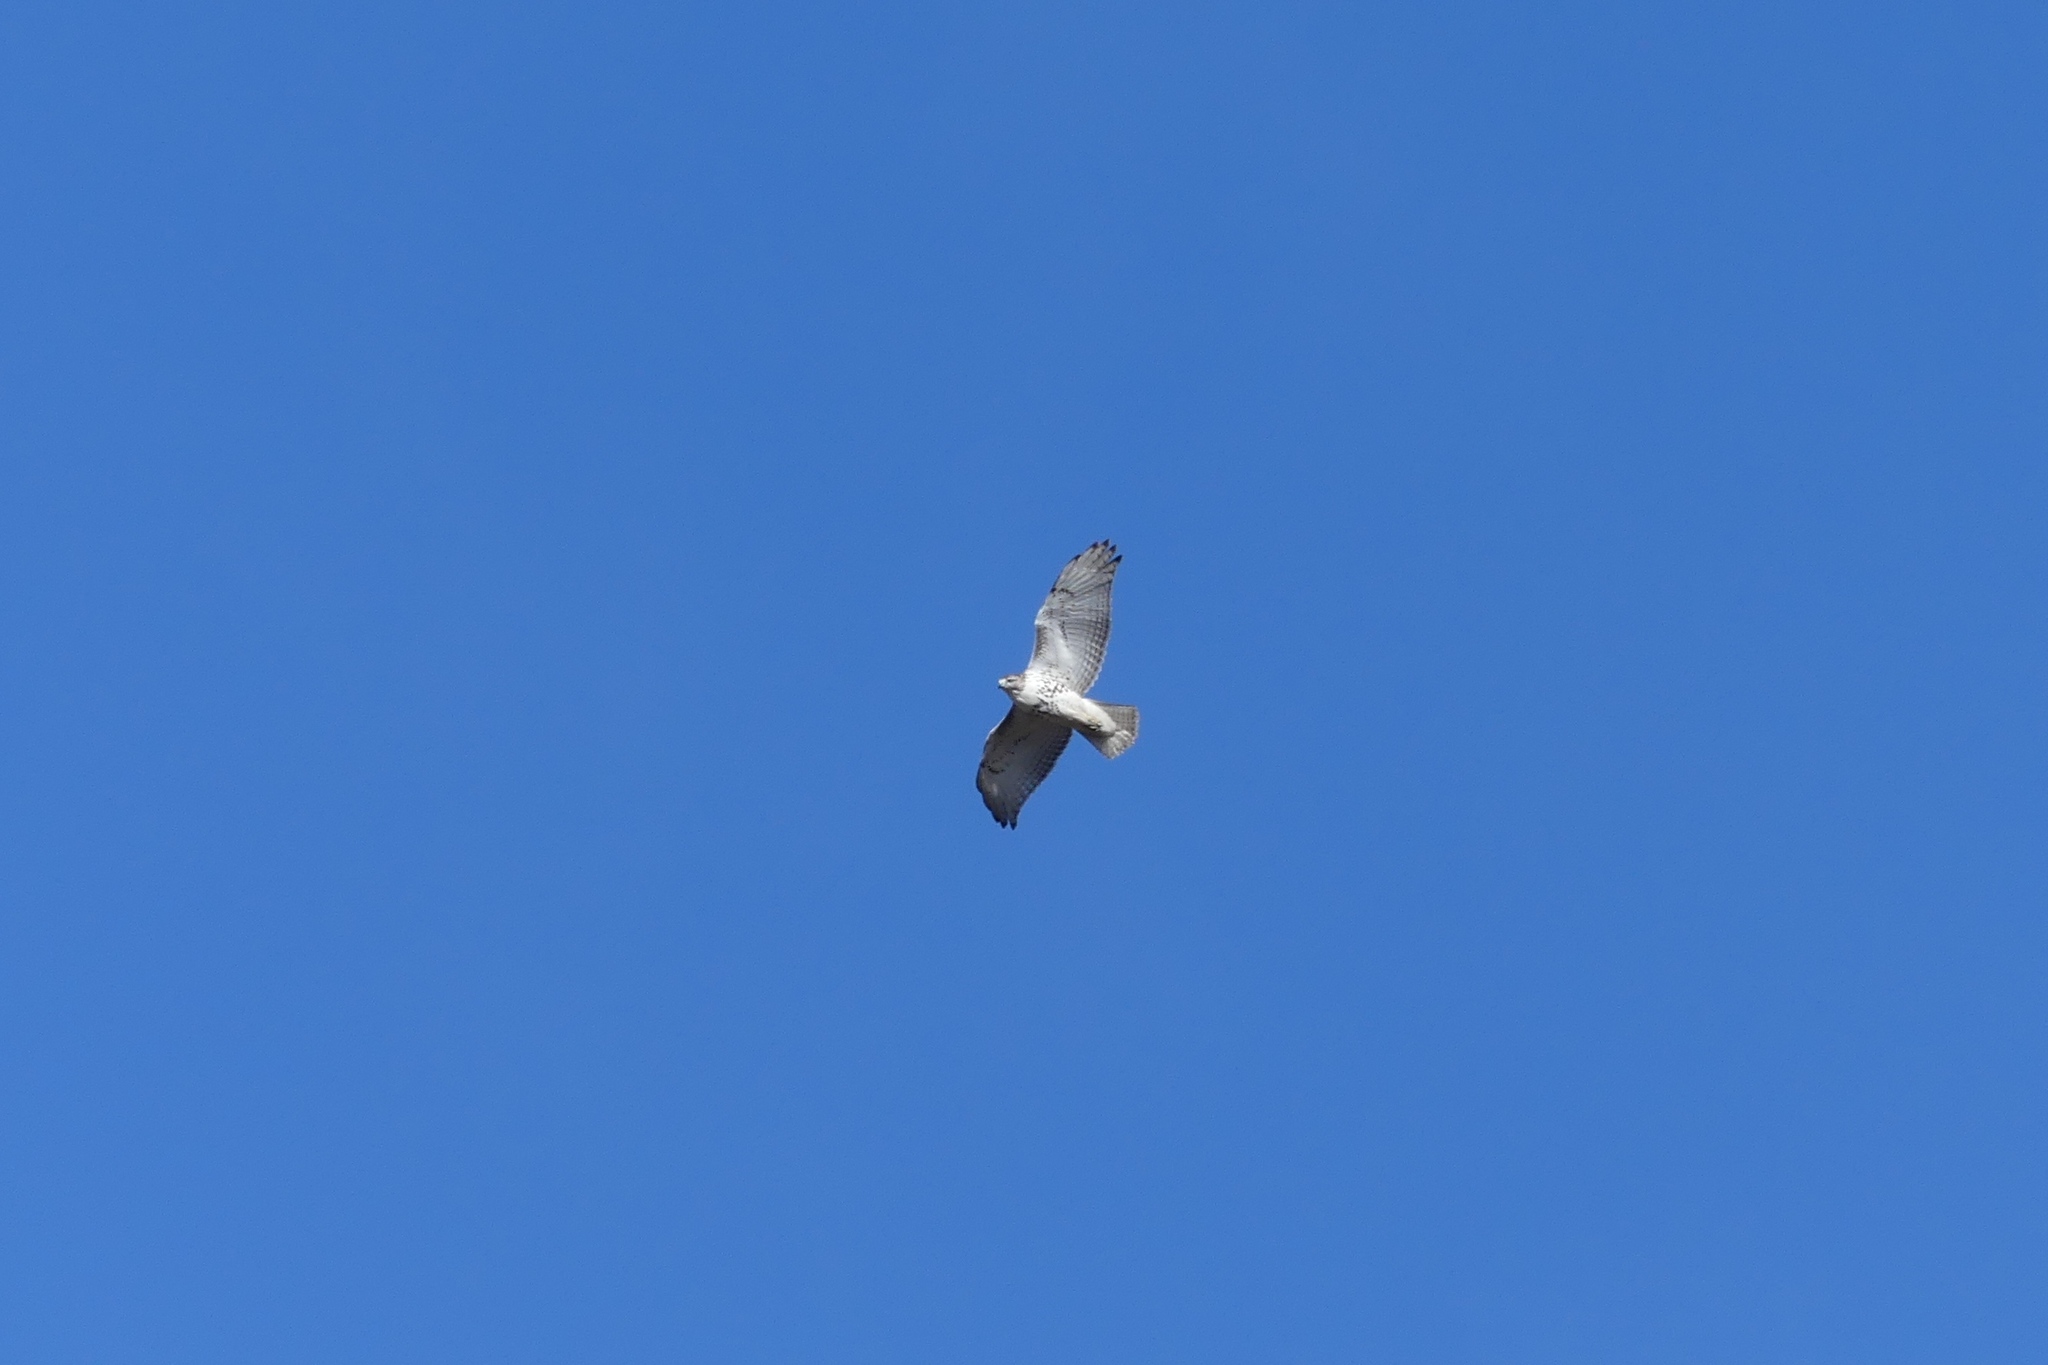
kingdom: Animalia
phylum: Chordata
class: Aves
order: Accipitriformes
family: Accipitridae
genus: Buteo
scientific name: Buteo jamaicensis
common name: Red-tailed hawk
